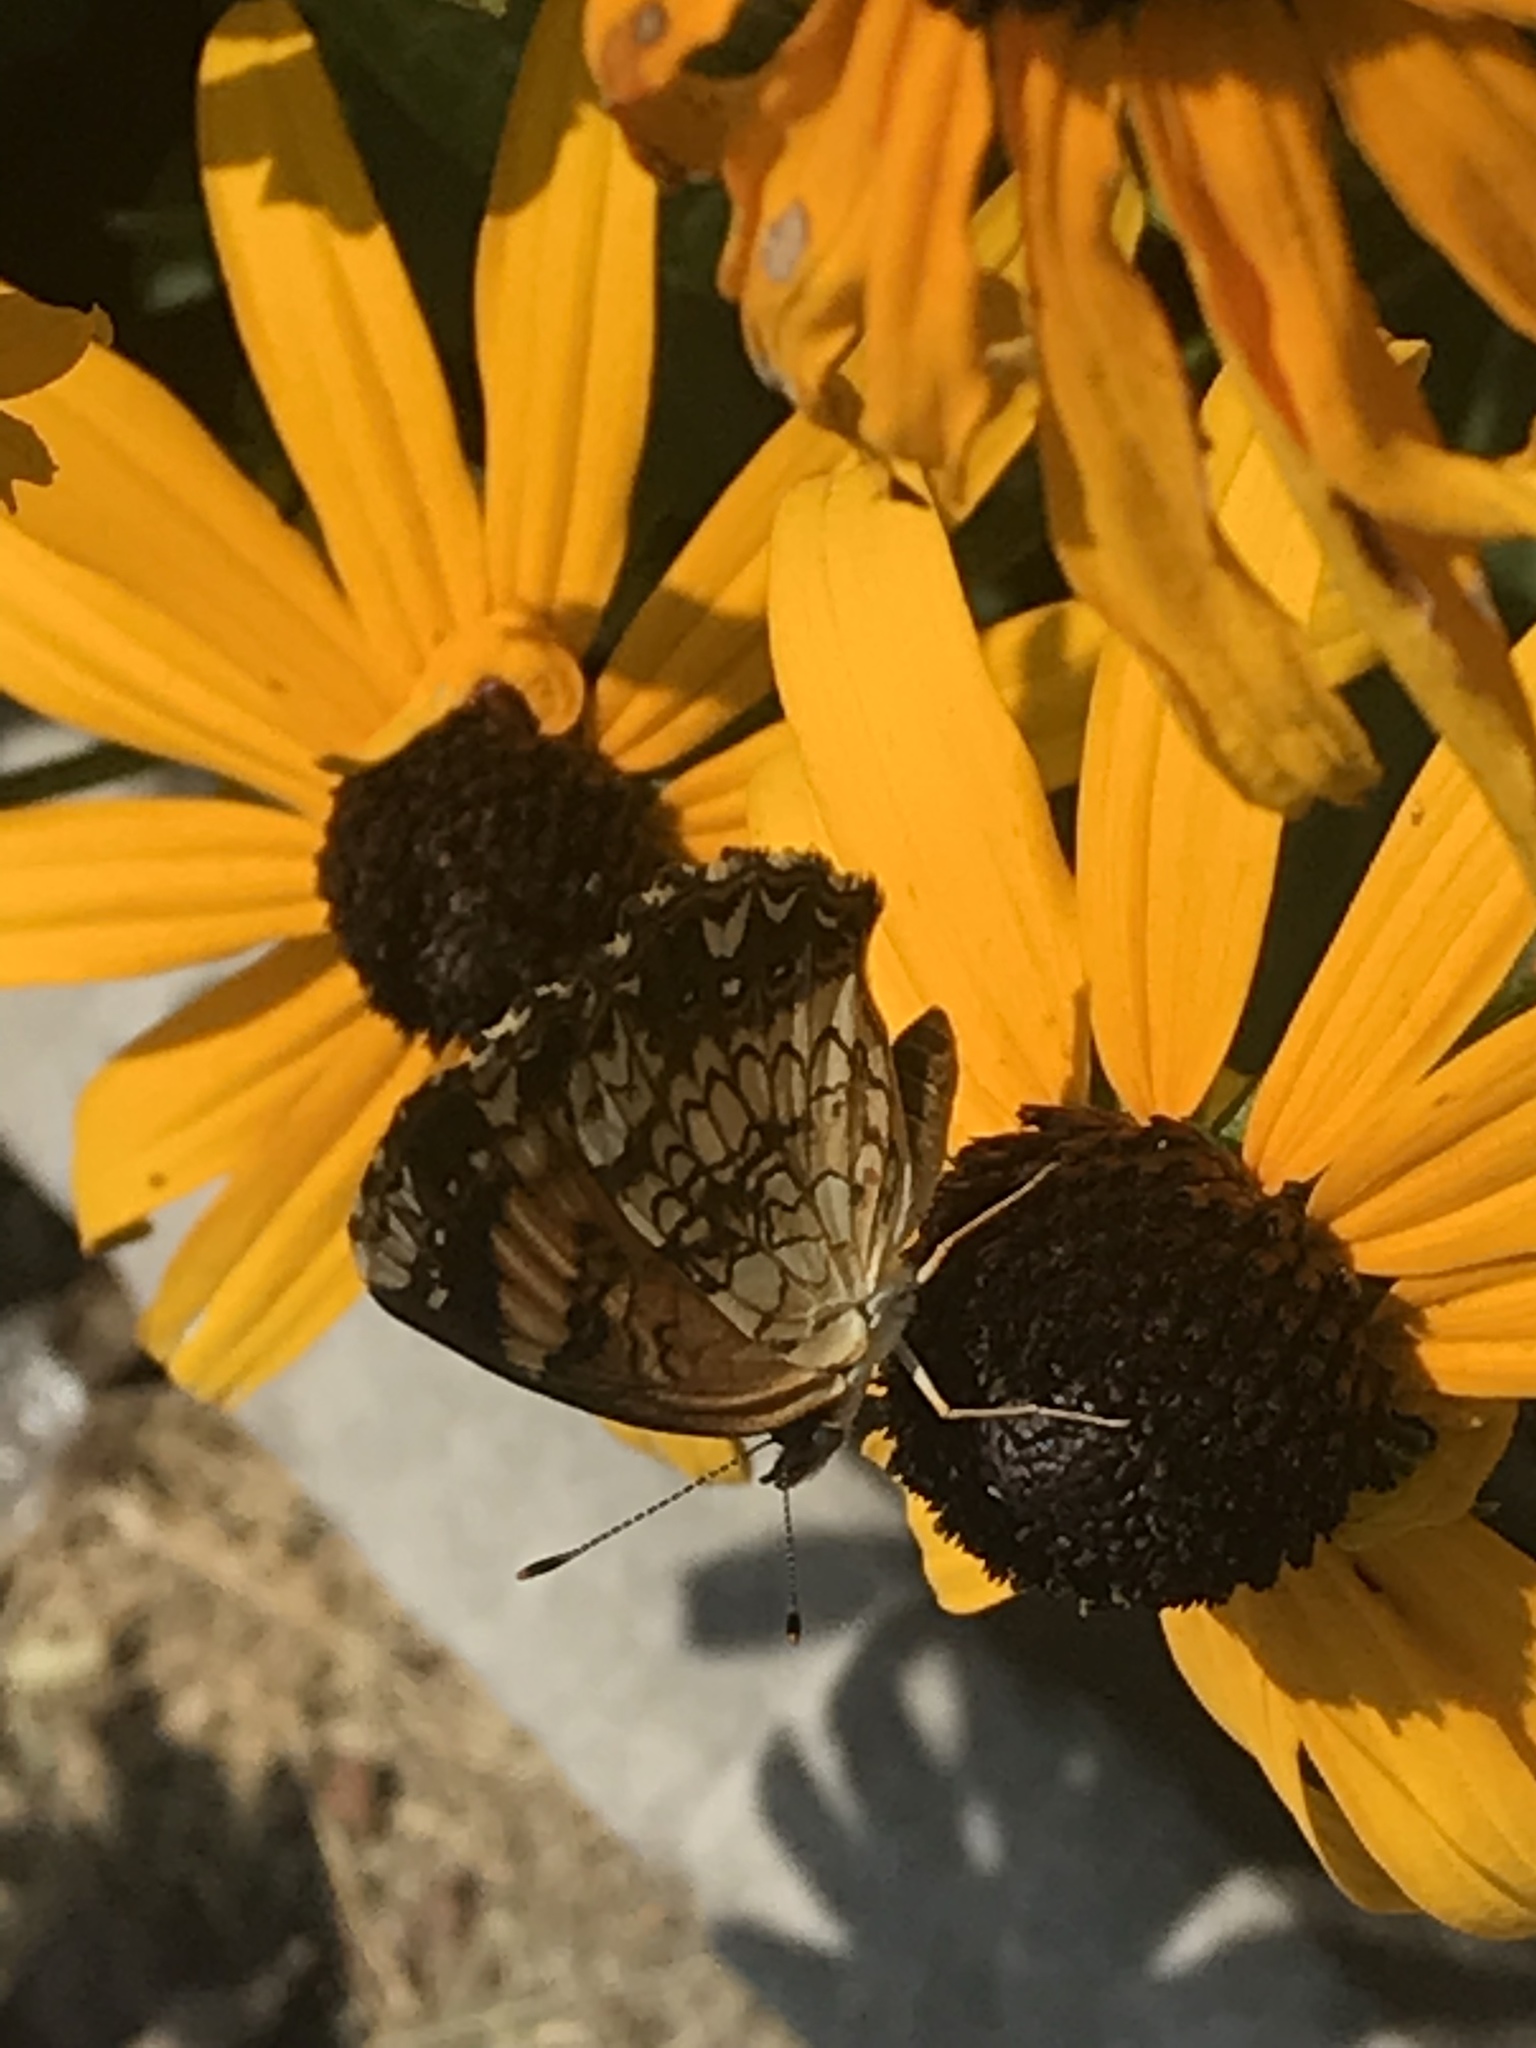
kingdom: Animalia
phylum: Arthropoda
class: Insecta
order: Lepidoptera
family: Nymphalidae
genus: Chlosyne
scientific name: Chlosyne nycteis
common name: Silvery checkerspot
